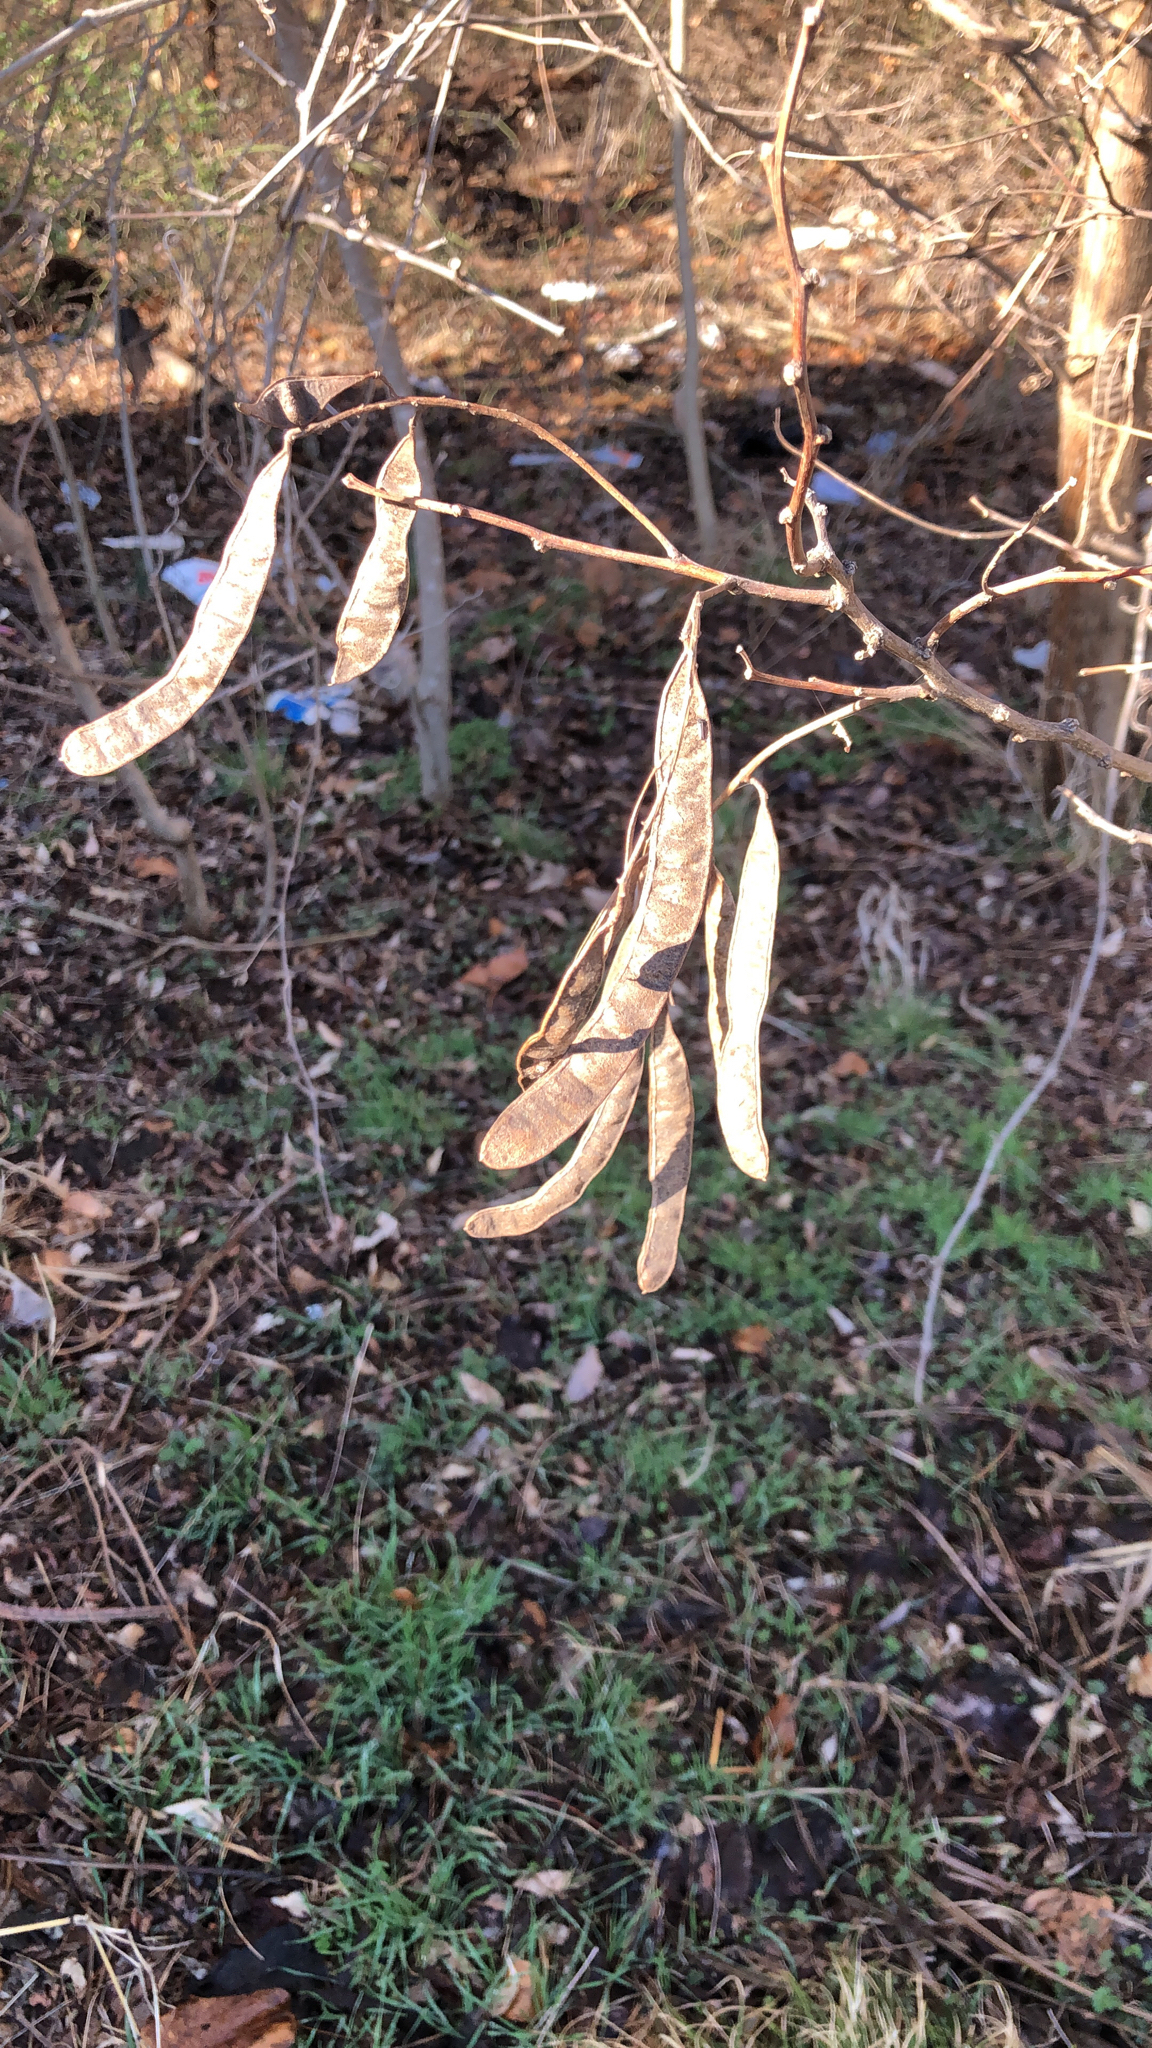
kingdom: Plantae
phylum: Tracheophyta
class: Magnoliopsida
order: Fabales
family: Fabaceae
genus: Cercis
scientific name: Cercis canadensis
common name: Eastern redbud
